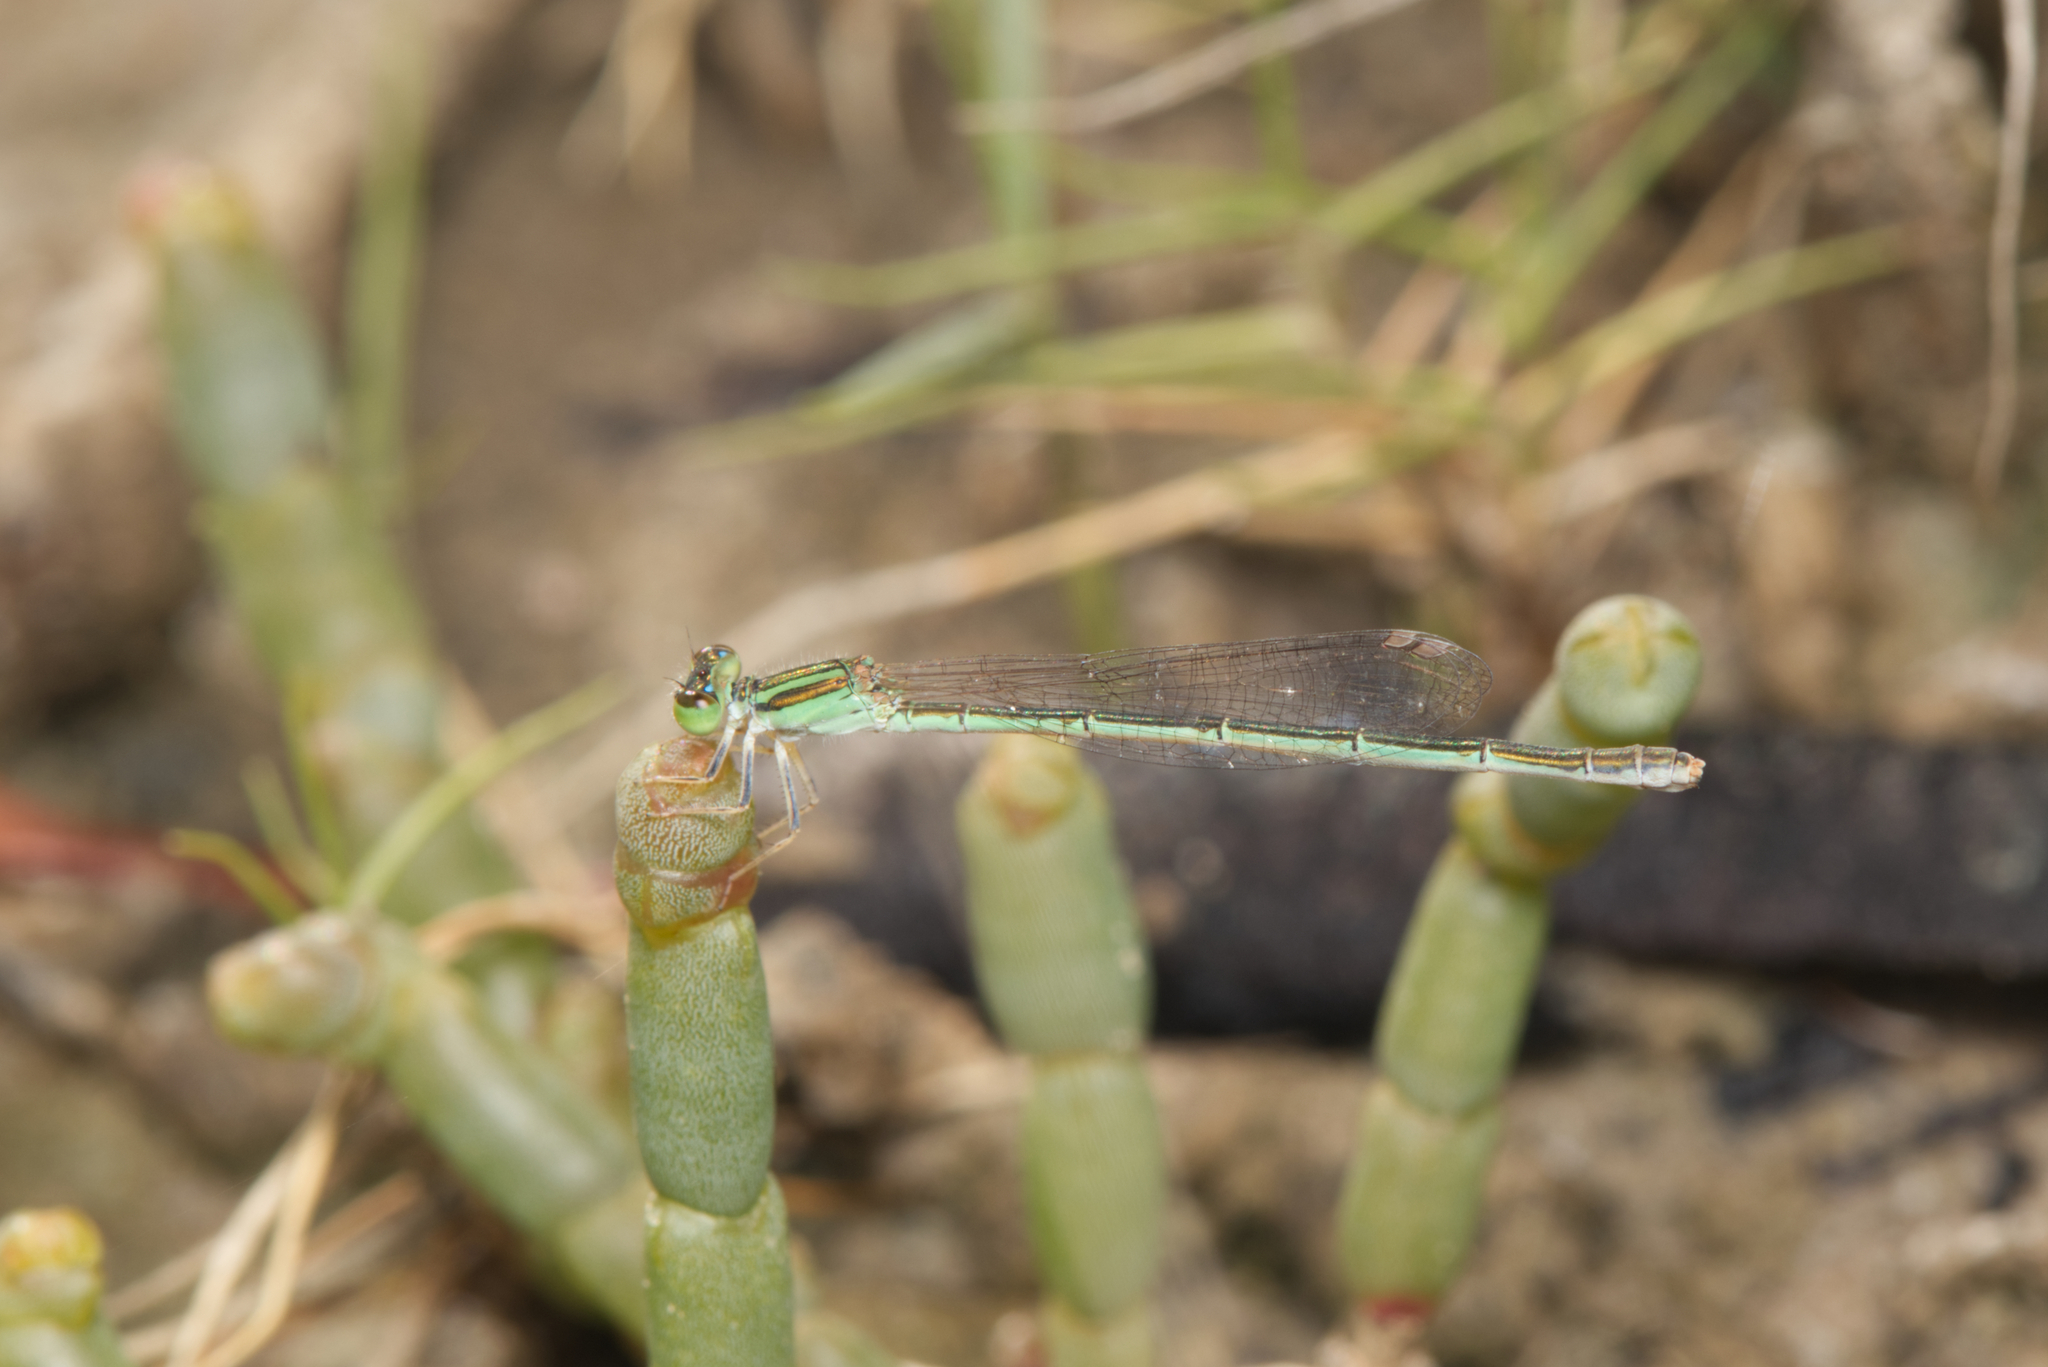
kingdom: Animalia
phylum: Arthropoda
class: Insecta
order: Odonata
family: Coenagrionidae
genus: Ischnura
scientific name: Ischnura aurora
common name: Gossamer damselfly
